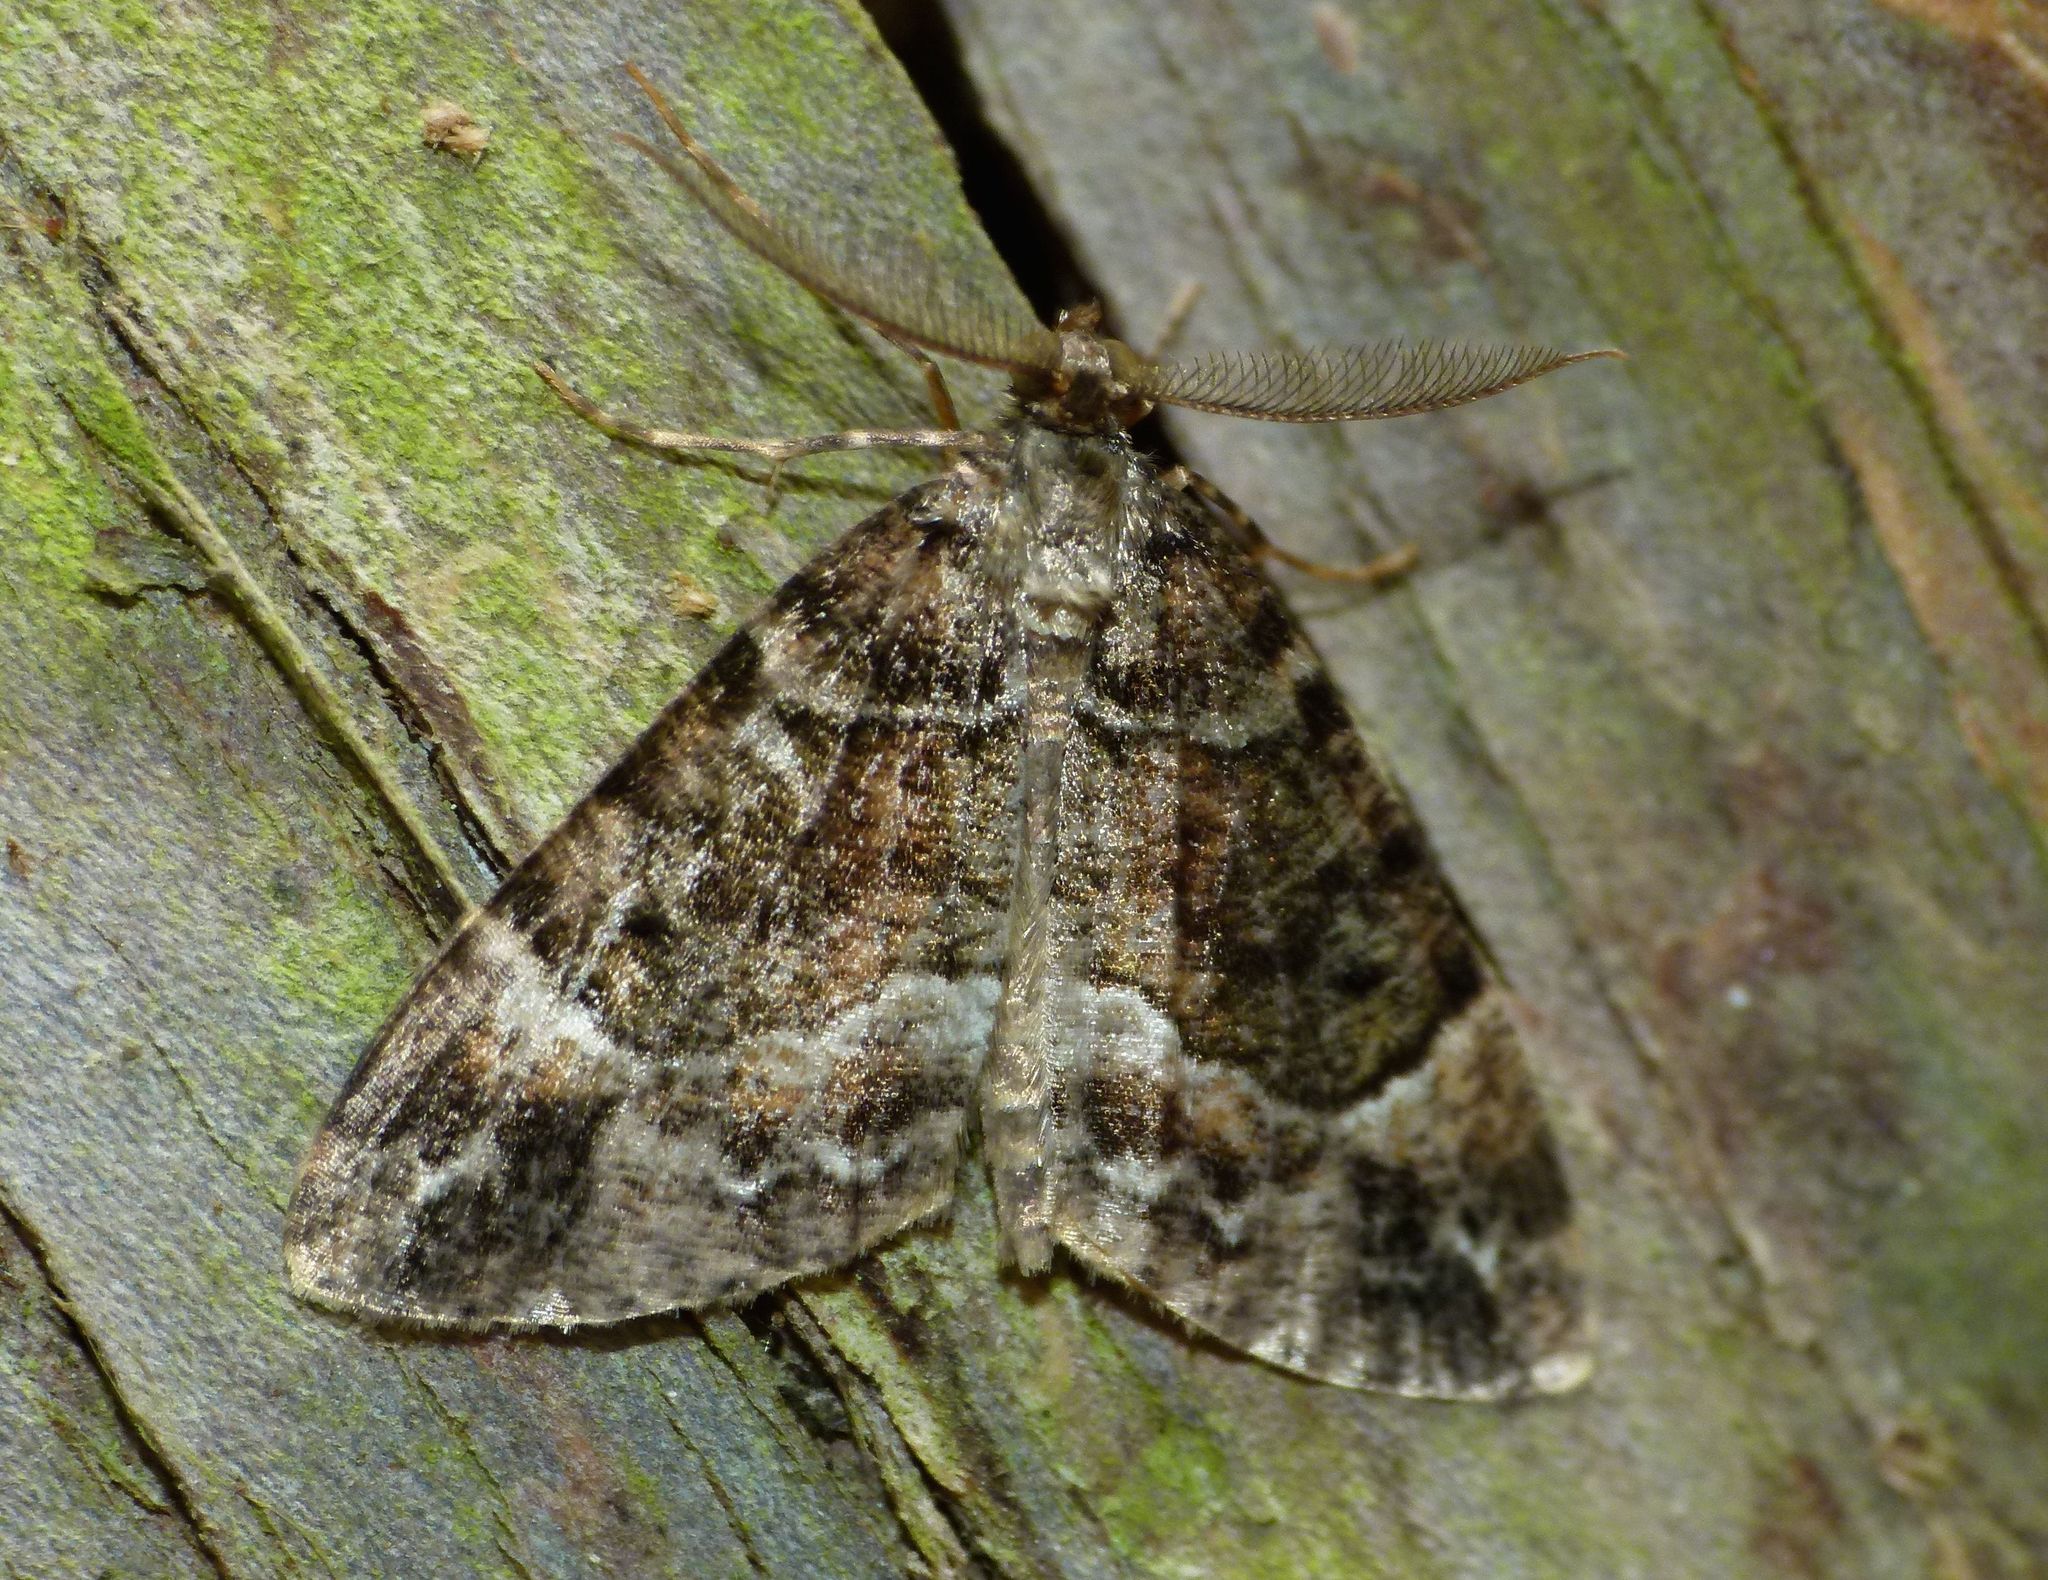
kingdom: Animalia
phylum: Arthropoda
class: Insecta
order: Lepidoptera
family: Geometridae
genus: Pseudocoremia
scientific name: Pseudocoremia productata
